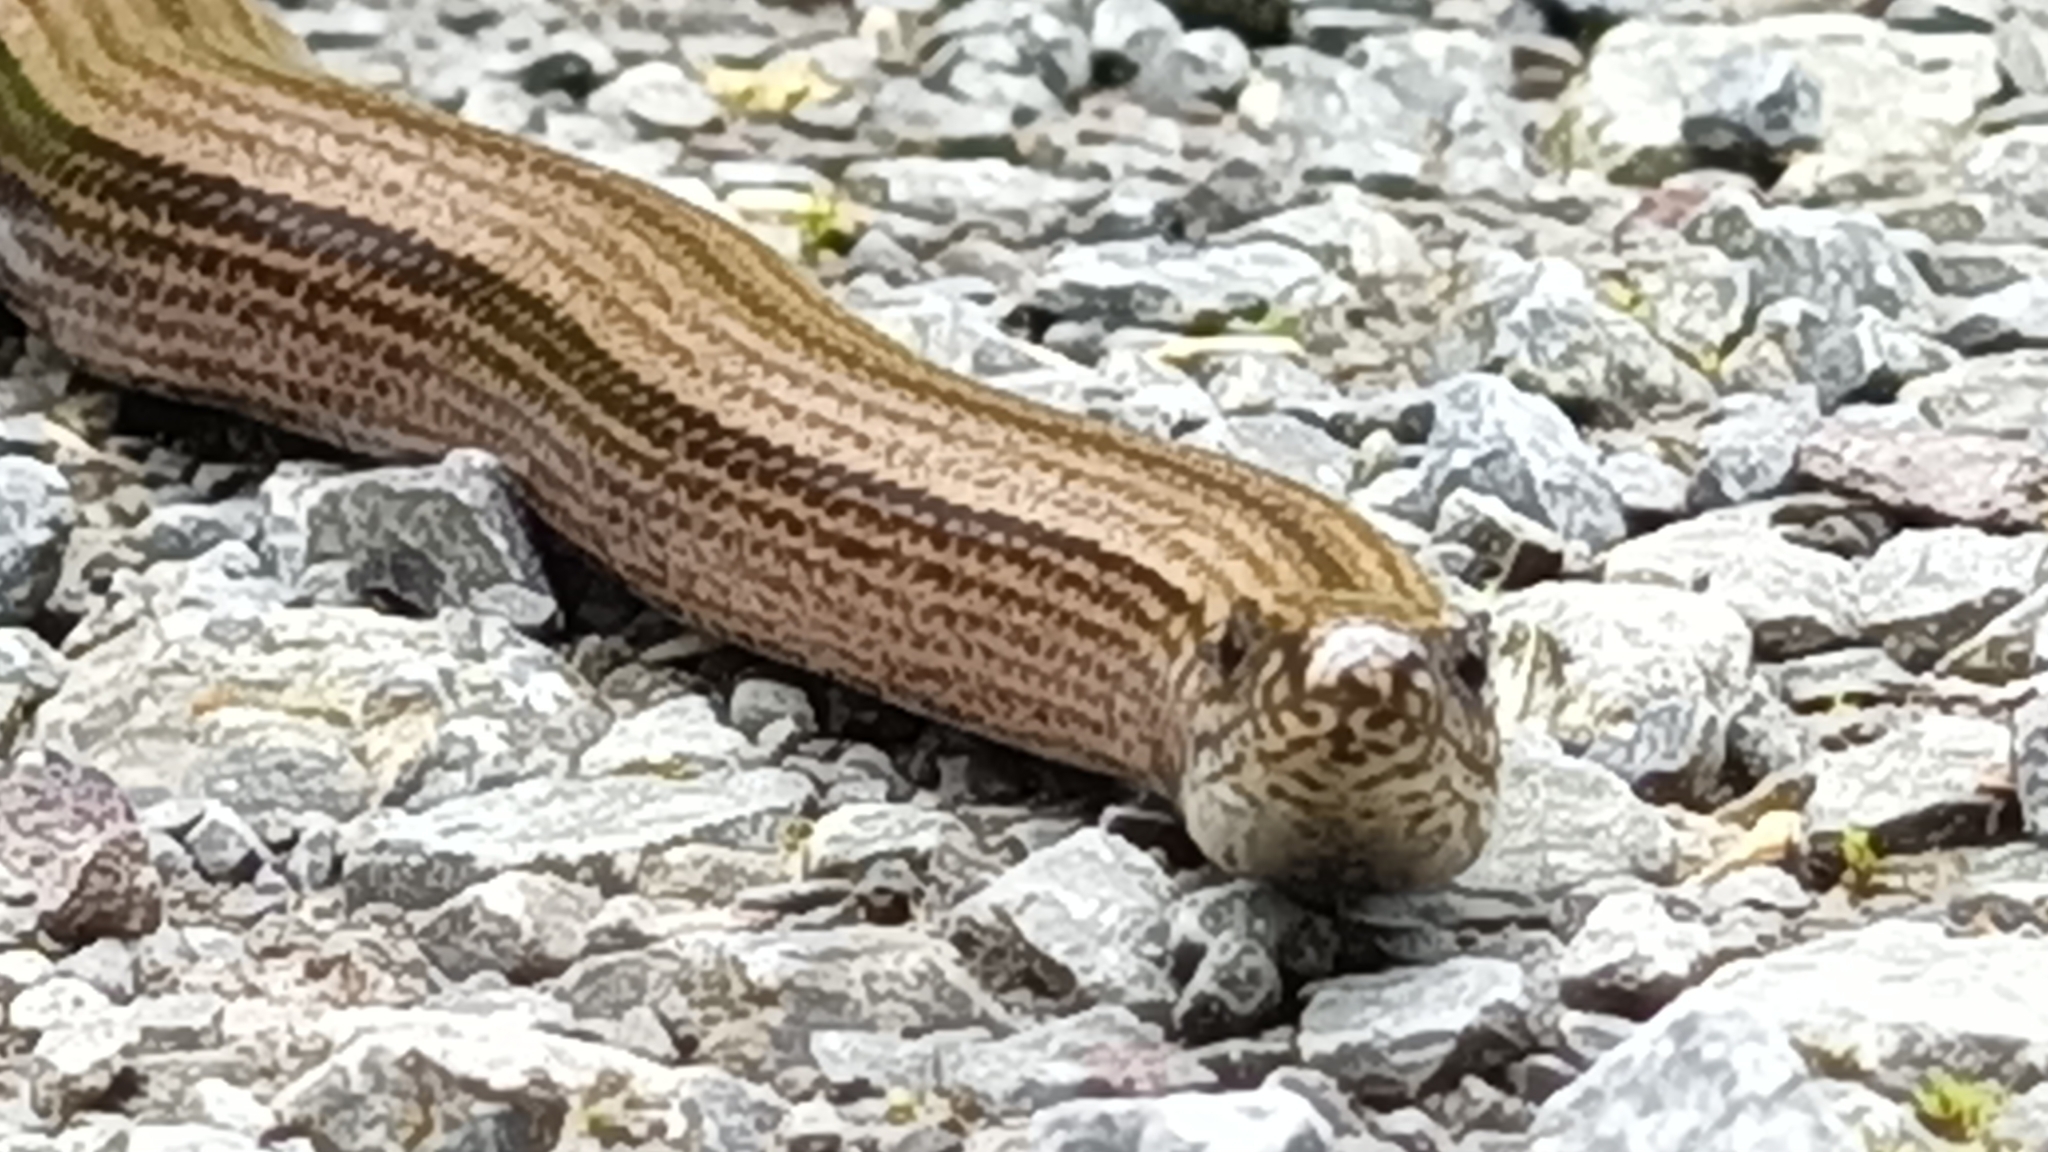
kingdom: Animalia
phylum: Chordata
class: Squamata
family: Anguidae
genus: Anguis
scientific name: Anguis fragilis
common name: Slow worm
